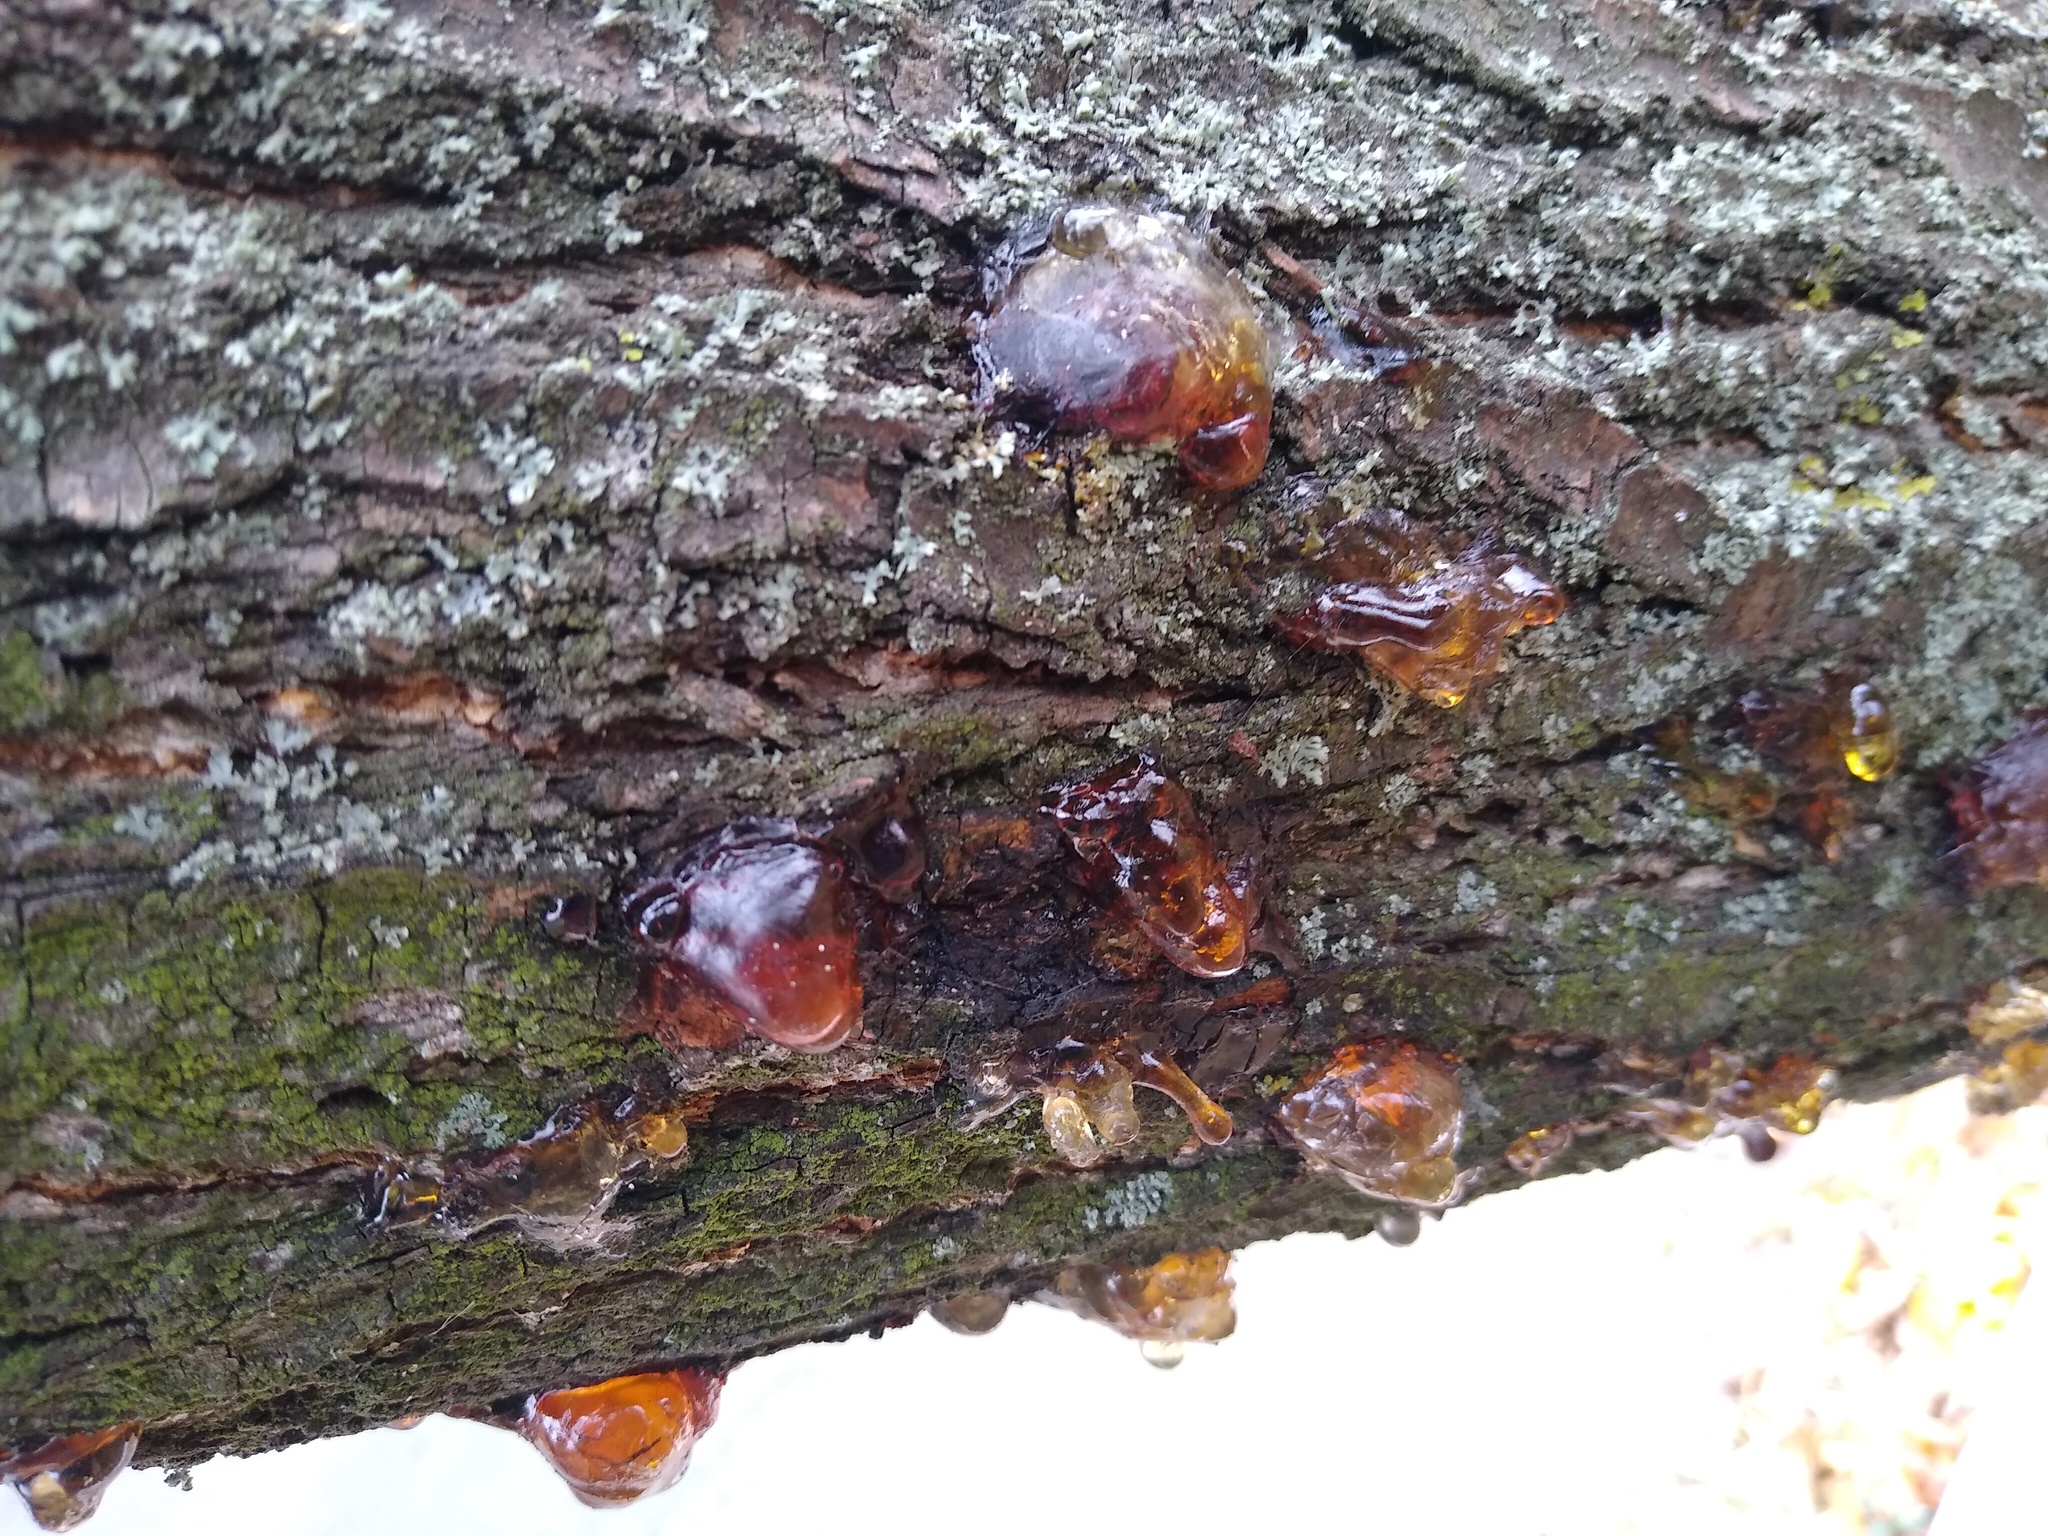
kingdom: Plantae
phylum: Tracheophyta
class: Magnoliopsida
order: Rosales
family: Rosaceae
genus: Prunus
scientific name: Prunus armeniaca
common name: Apricot
